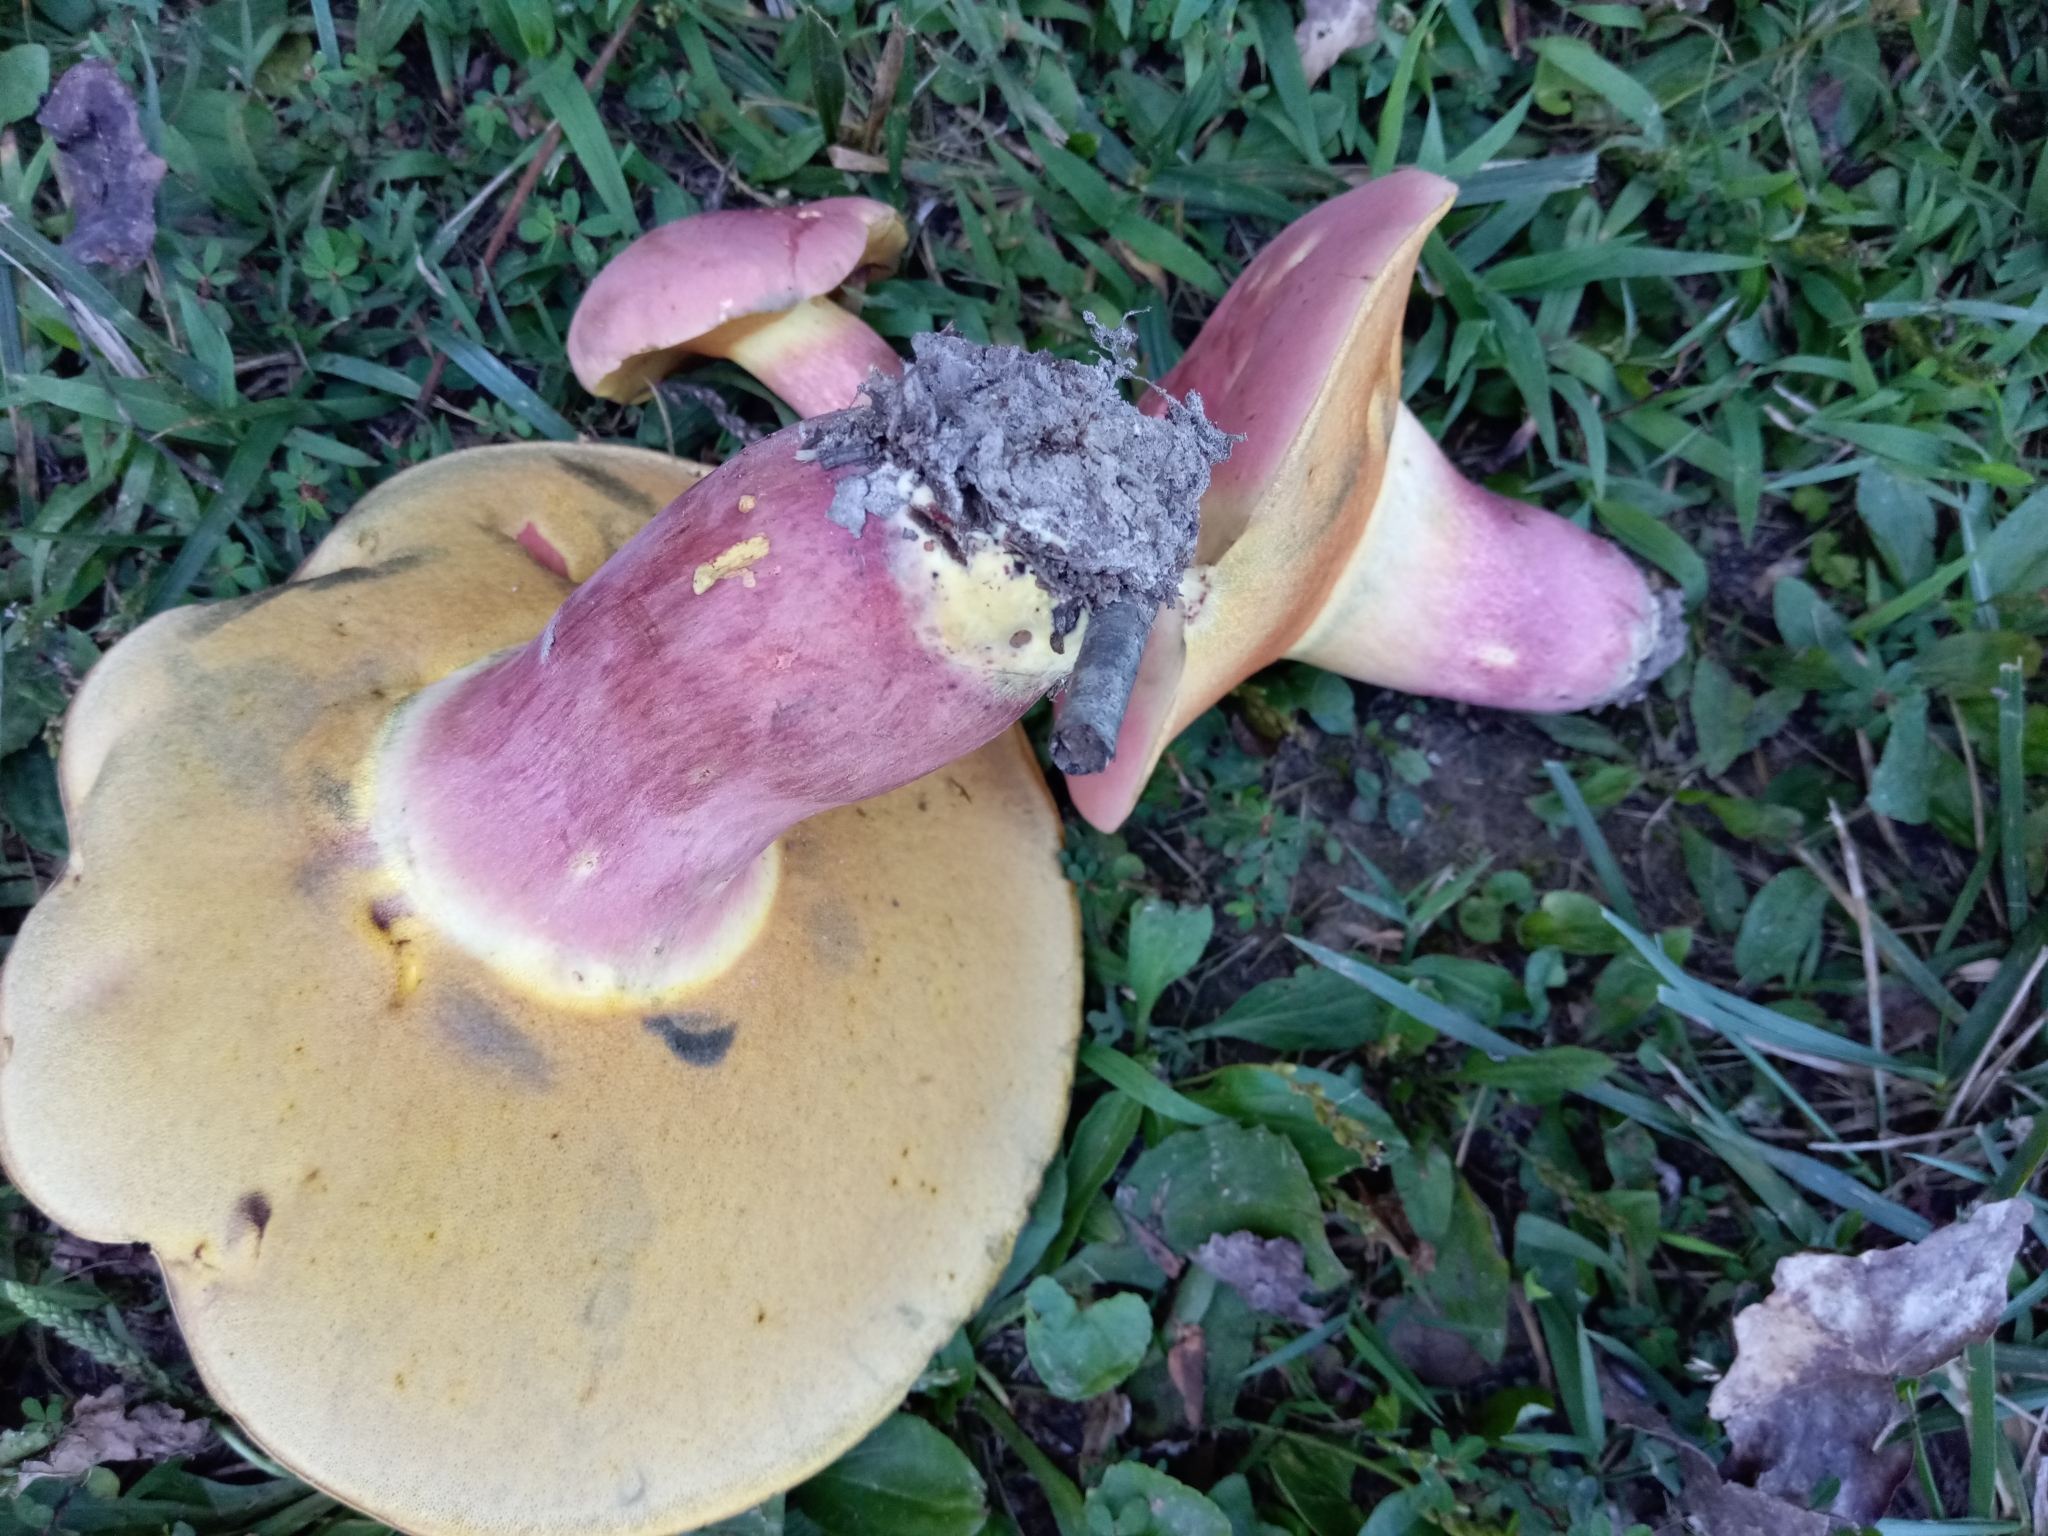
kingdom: Fungi
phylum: Basidiomycota
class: Agaricomycetes
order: Boletales
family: Boletaceae
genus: Lanmaoa
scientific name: Lanmaoa pallidorosea
